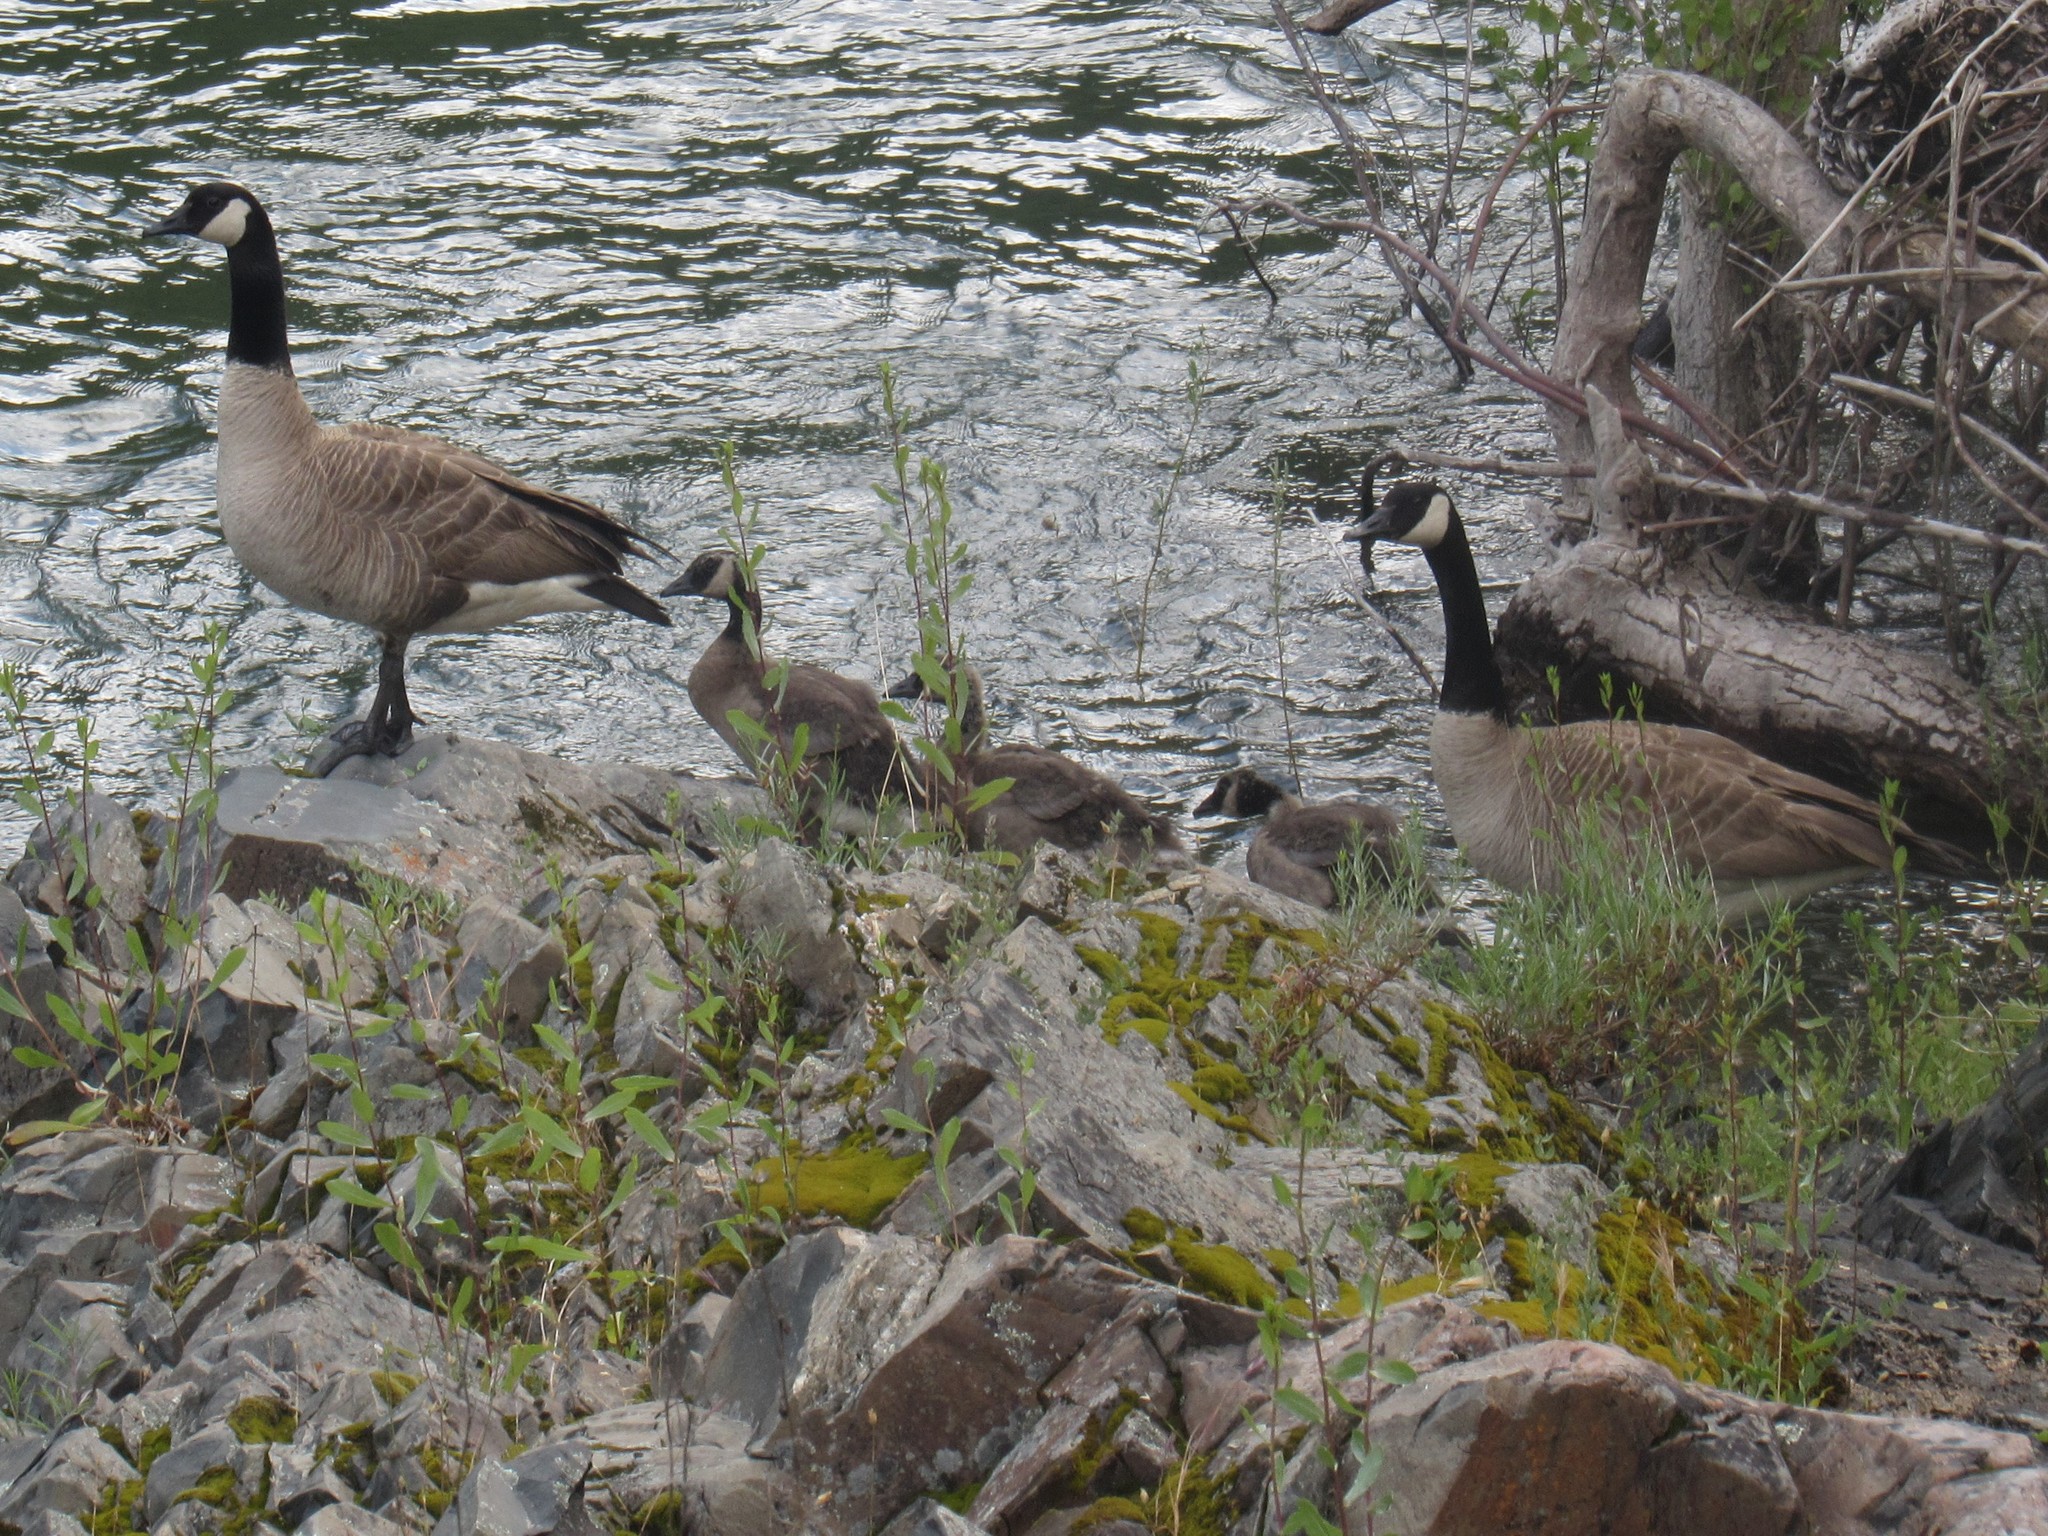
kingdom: Animalia
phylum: Chordata
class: Aves
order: Anseriformes
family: Anatidae
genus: Branta
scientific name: Branta canadensis
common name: Canada goose
